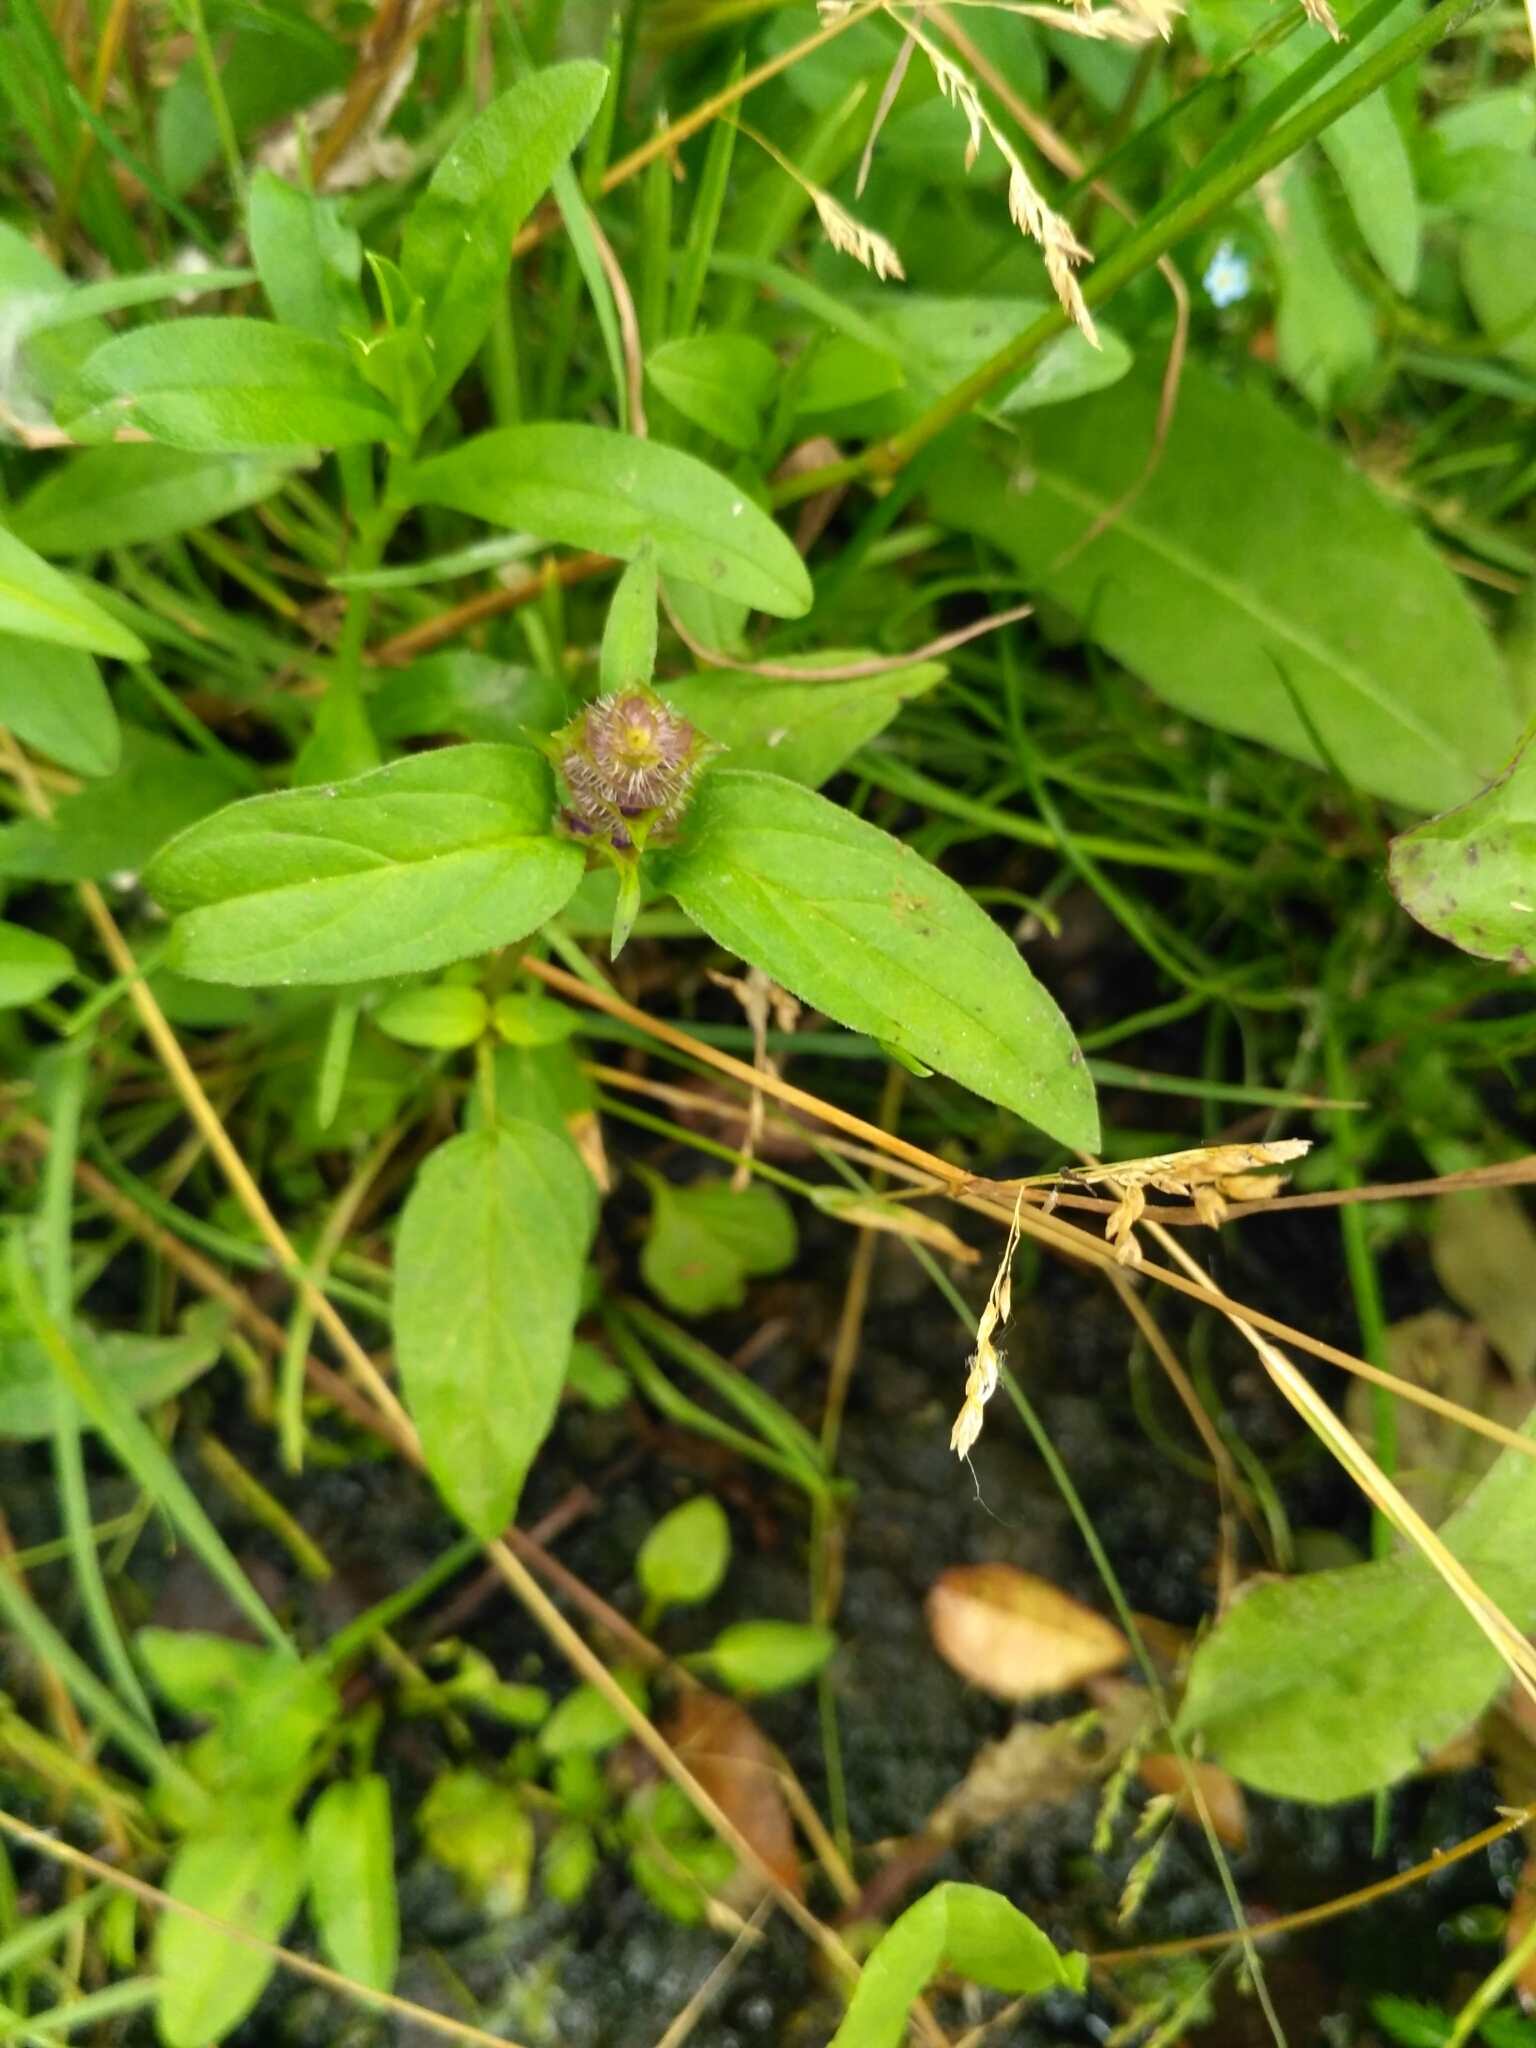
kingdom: Plantae
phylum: Tracheophyta
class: Magnoliopsida
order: Lamiales
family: Lamiaceae
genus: Prunella
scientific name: Prunella vulgaris
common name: Heal-all
